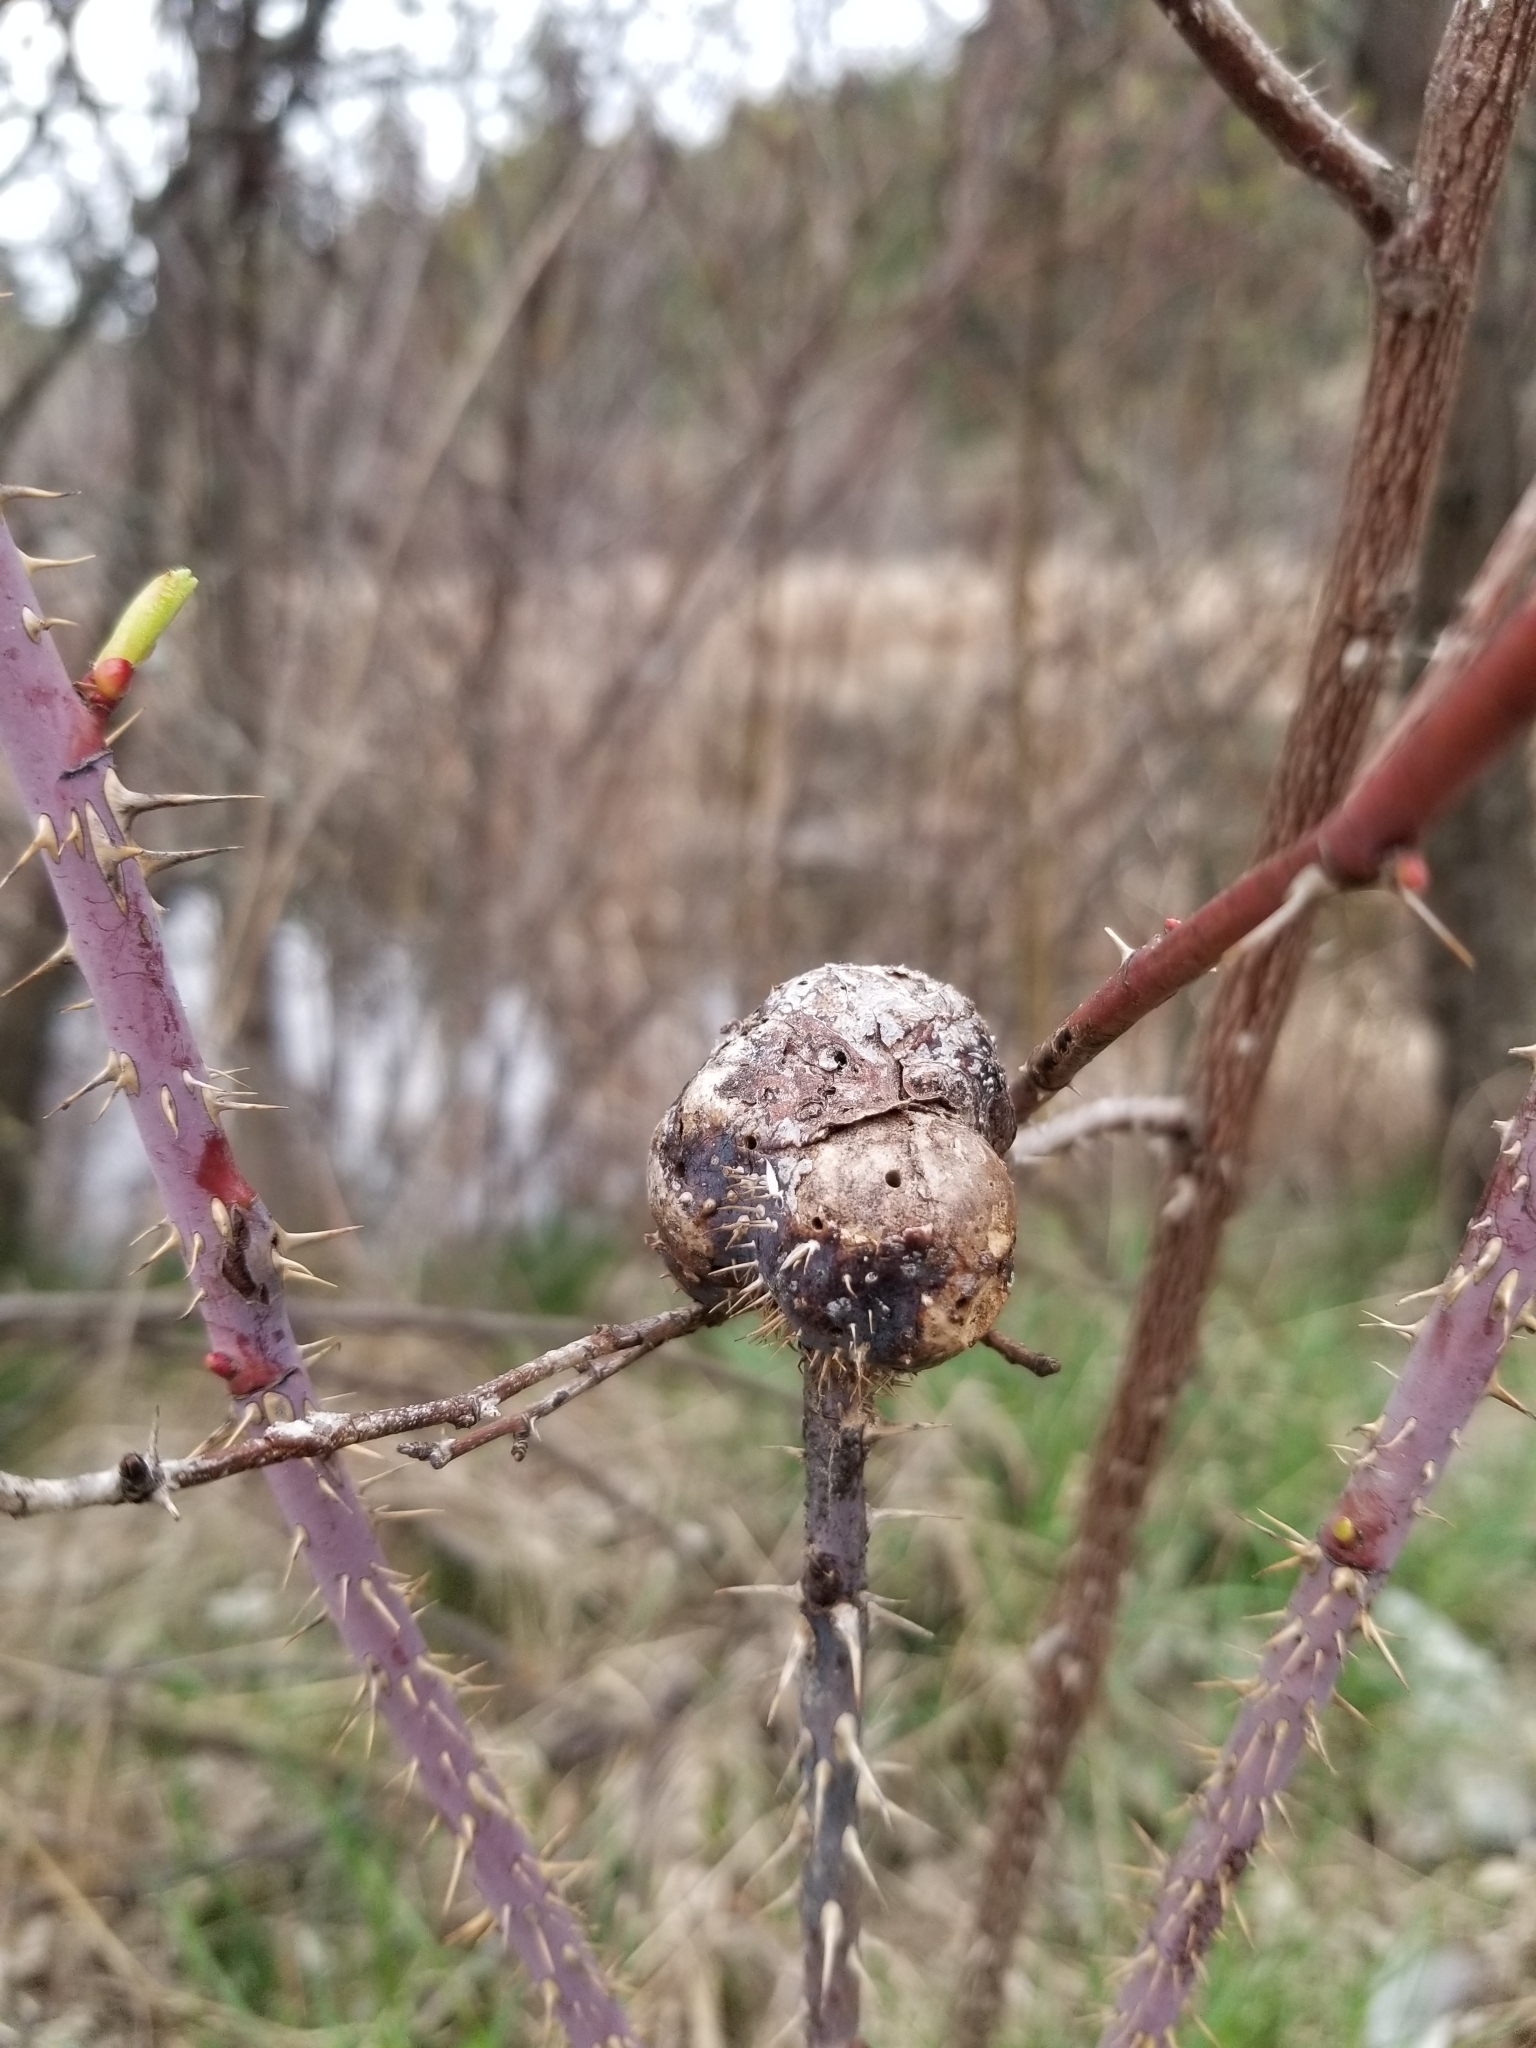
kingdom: Animalia
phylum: Arthropoda
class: Insecta
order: Hymenoptera
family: Cynipidae
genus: Diplolepis
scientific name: Diplolepis spinosa
